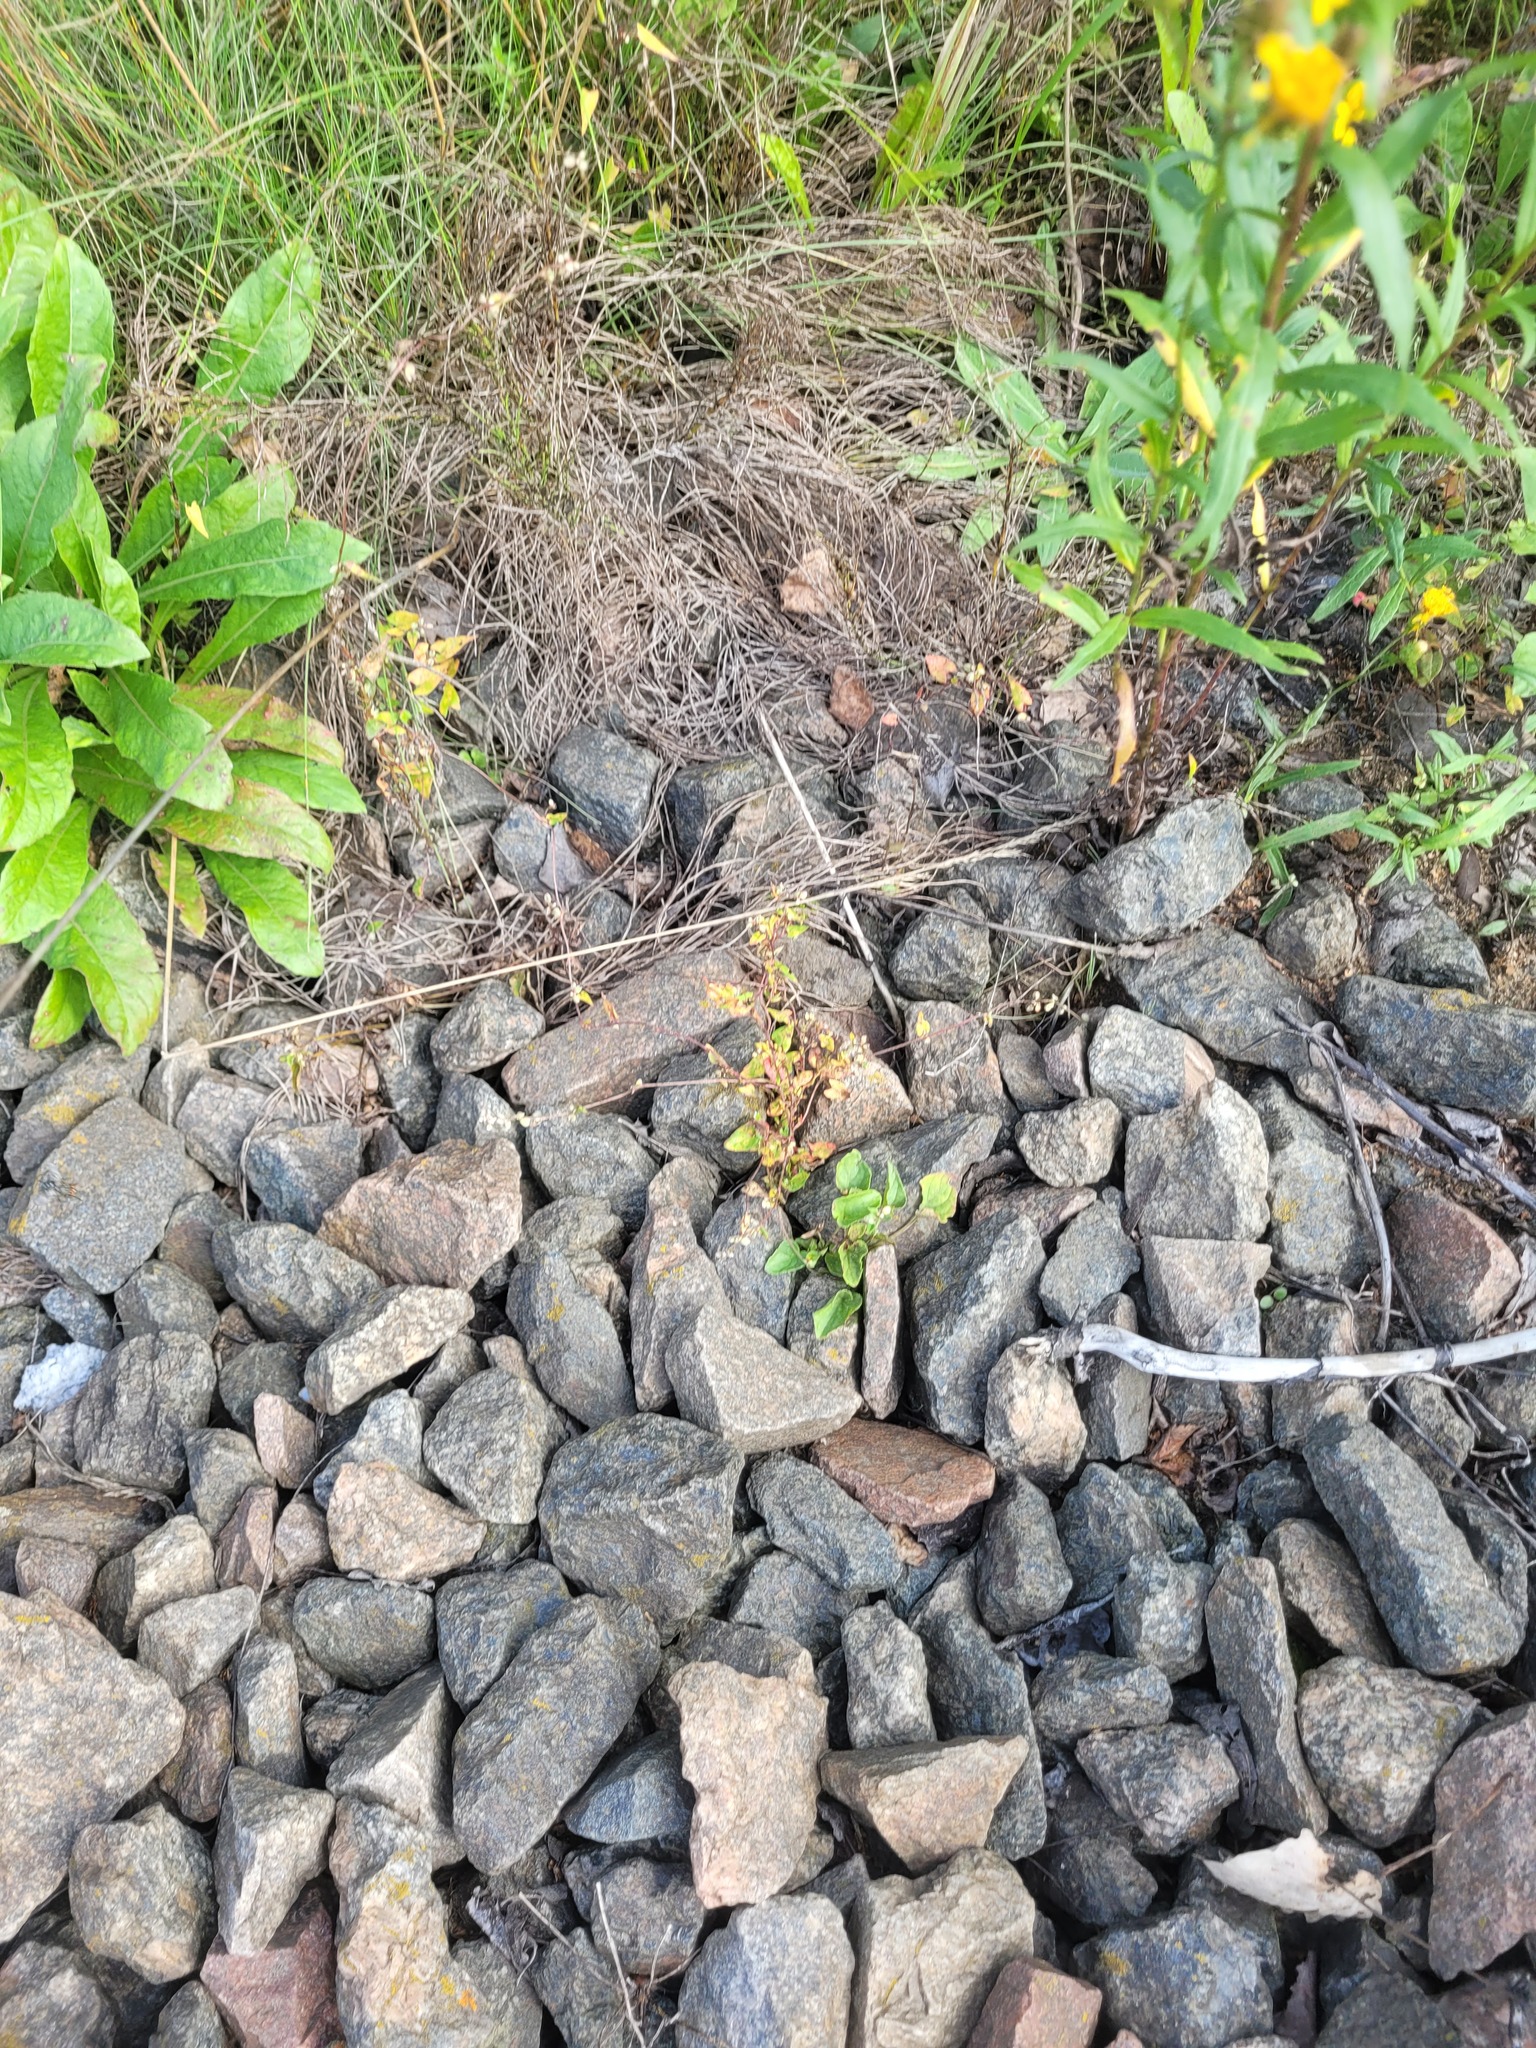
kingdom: Plantae
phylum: Tracheophyta
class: Magnoliopsida
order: Caryophyllales
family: Polygonaceae
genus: Fallopia
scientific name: Fallopia convolvulus
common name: Black bindweed
